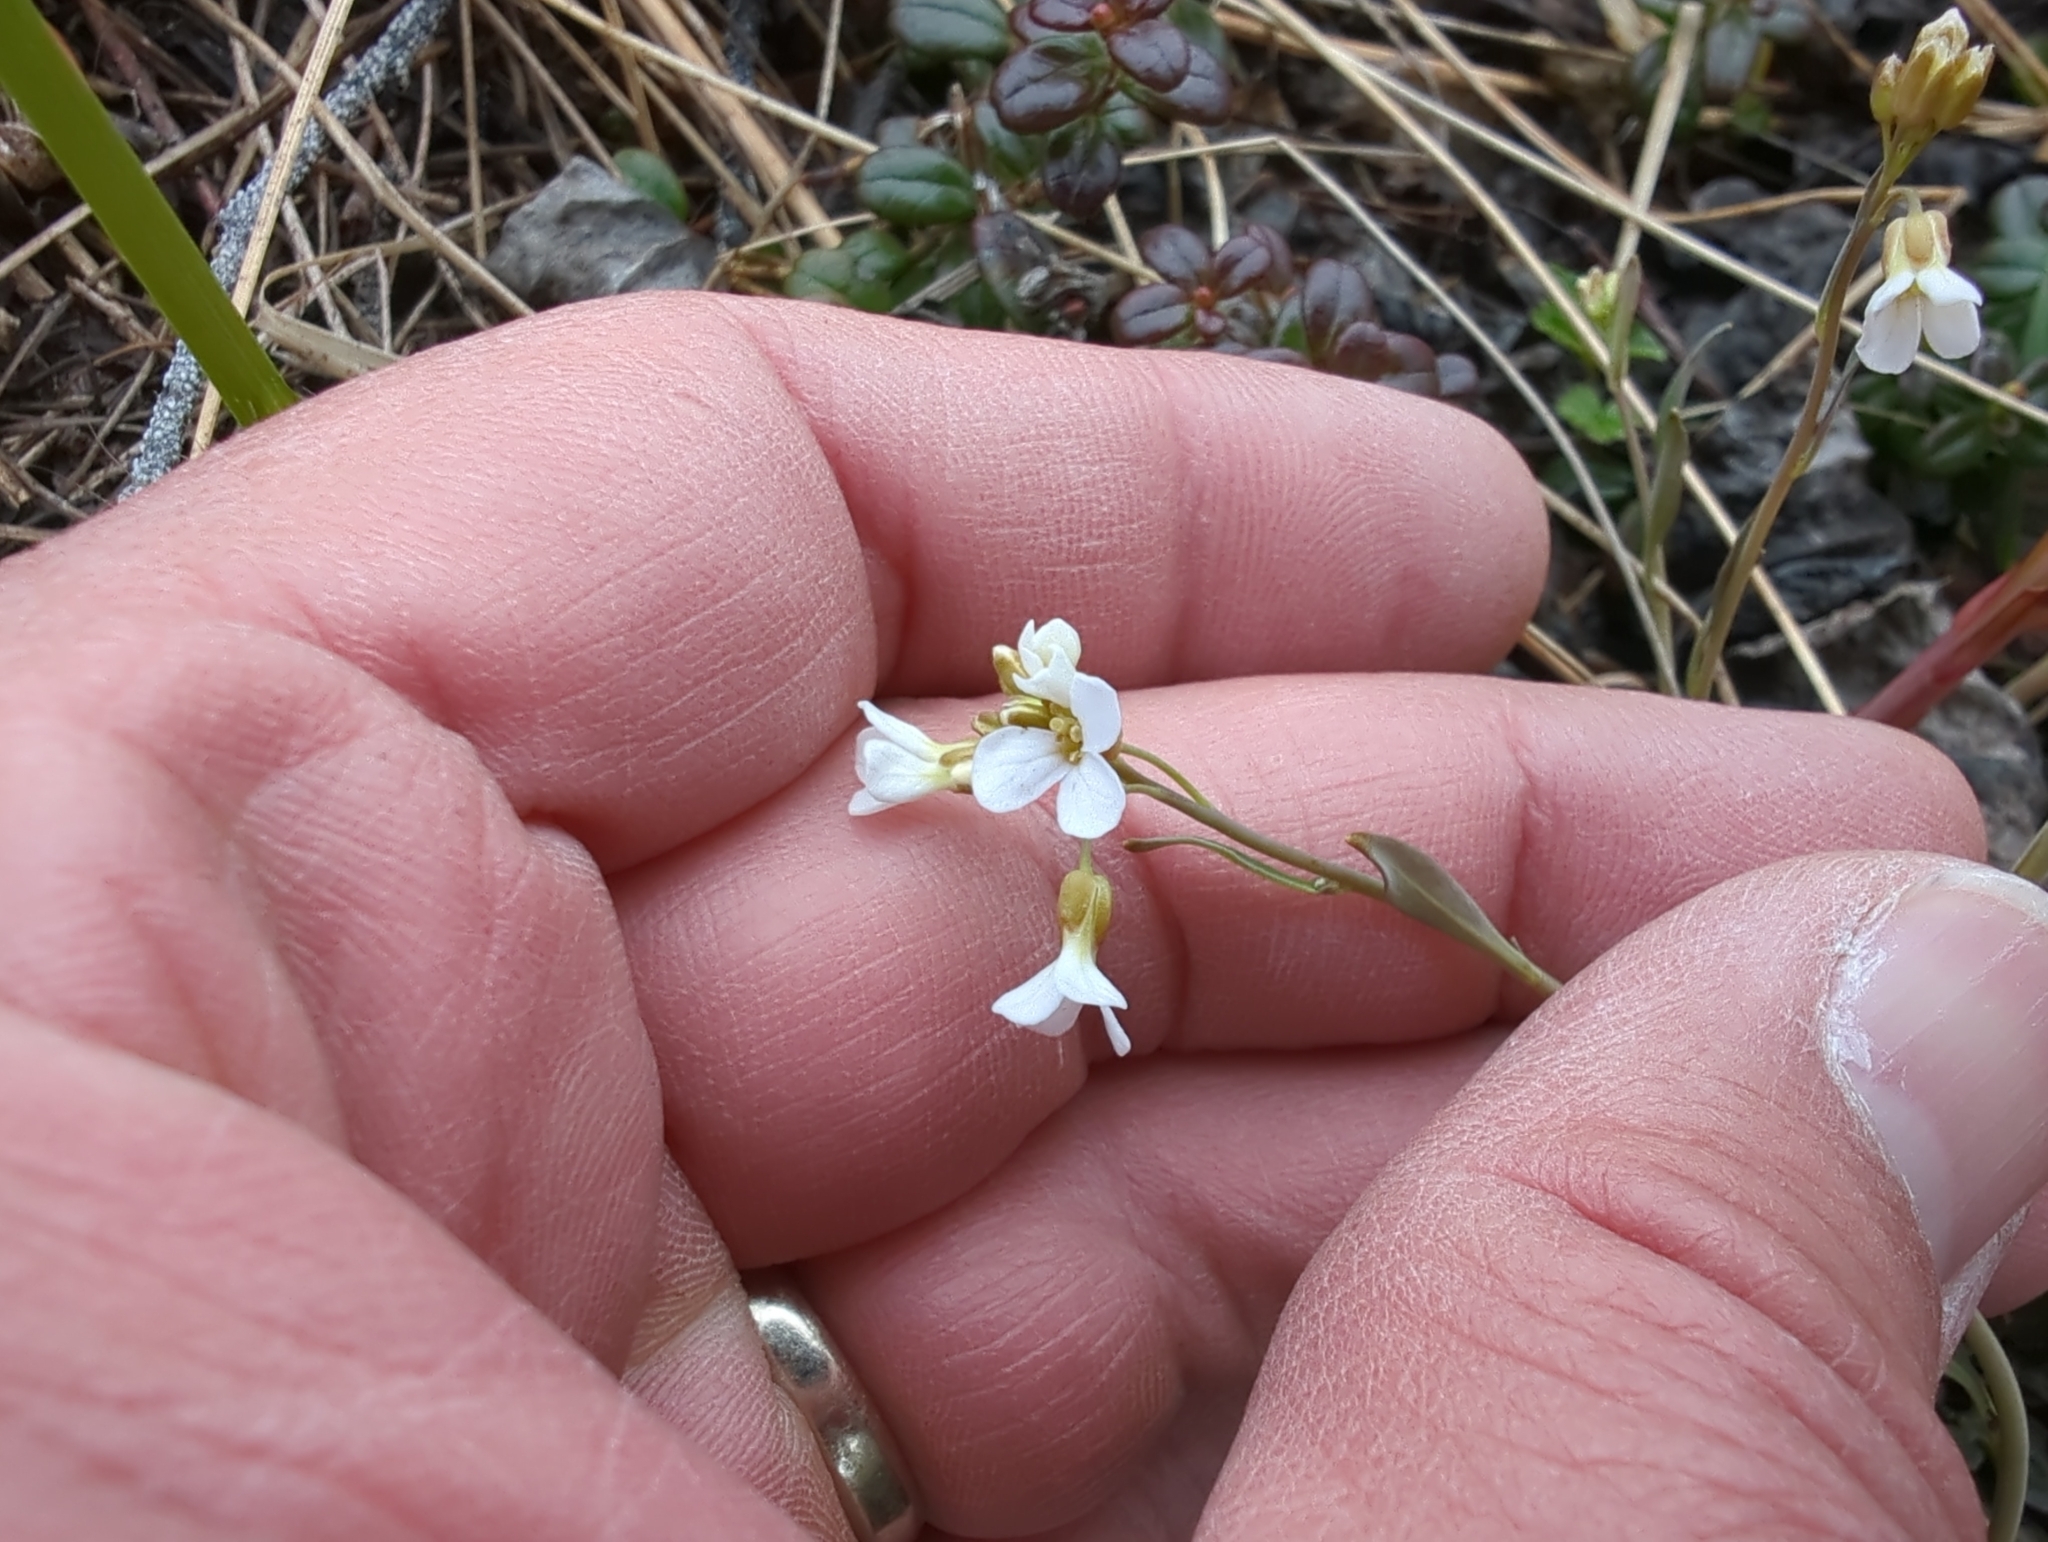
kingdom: Plantae
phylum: Tracheophyta
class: Magnoliopsida
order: Brassicales
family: Brassicaceae
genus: Arabidopsis
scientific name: Arabidopsis lyrata
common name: Lyrate rockcress
